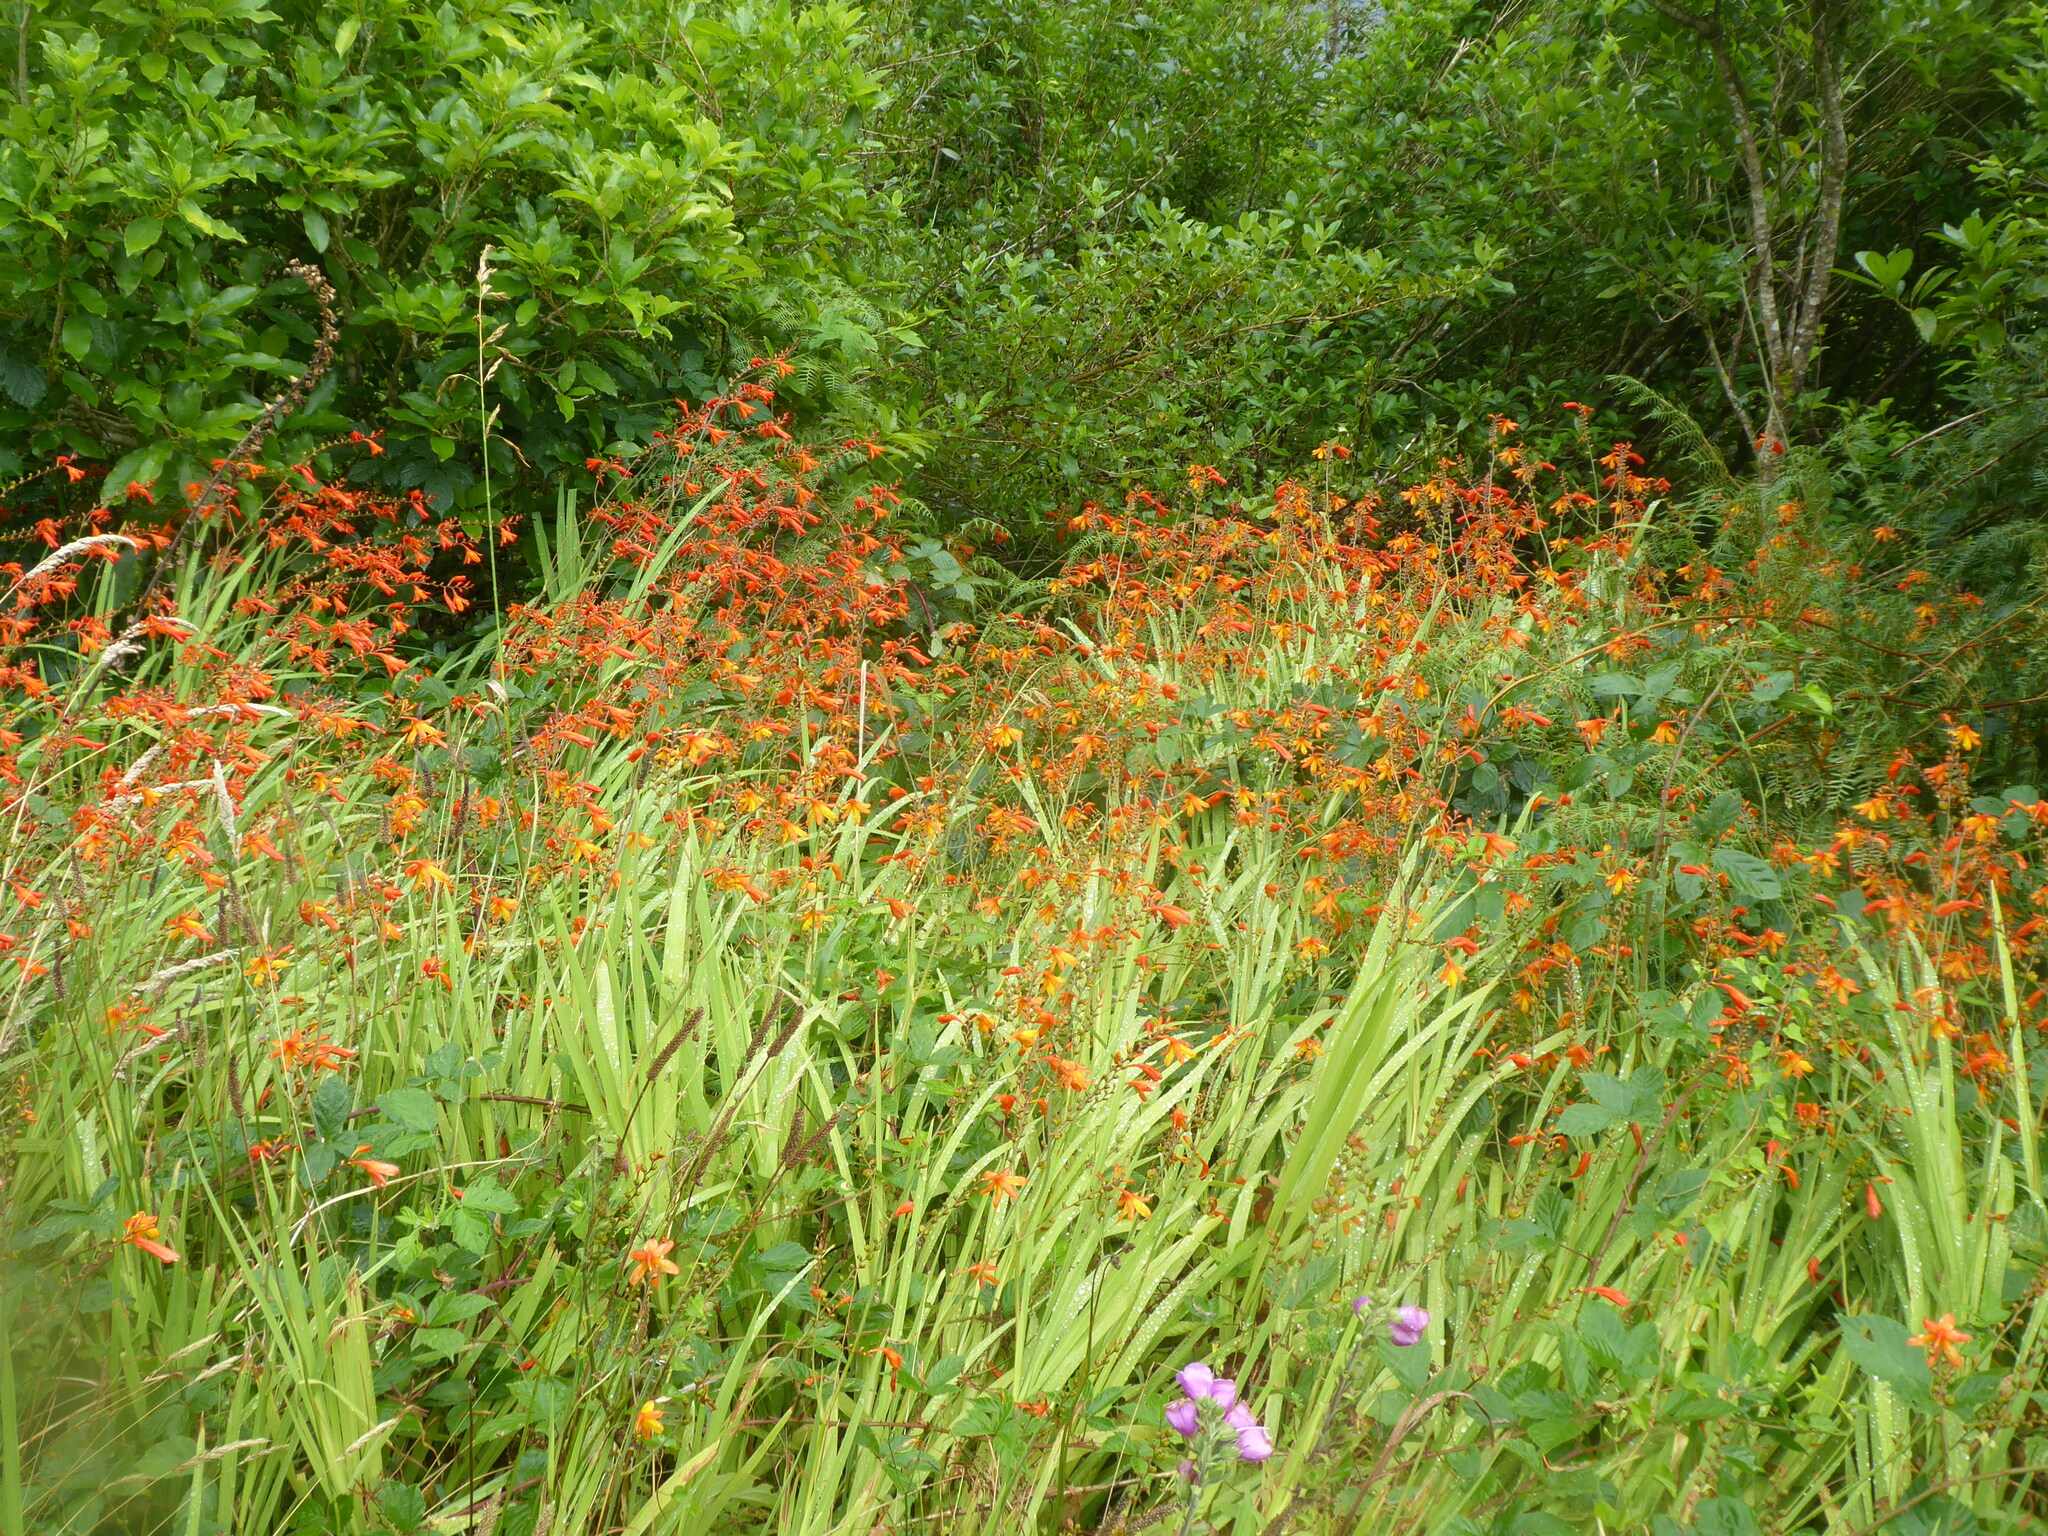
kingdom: Plantae
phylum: Tracheophyta
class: Liliopsida
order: Asparagales
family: Iridaceae
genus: Crocosmia
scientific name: Crocosmia crocosmiiflora
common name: Montbretia
